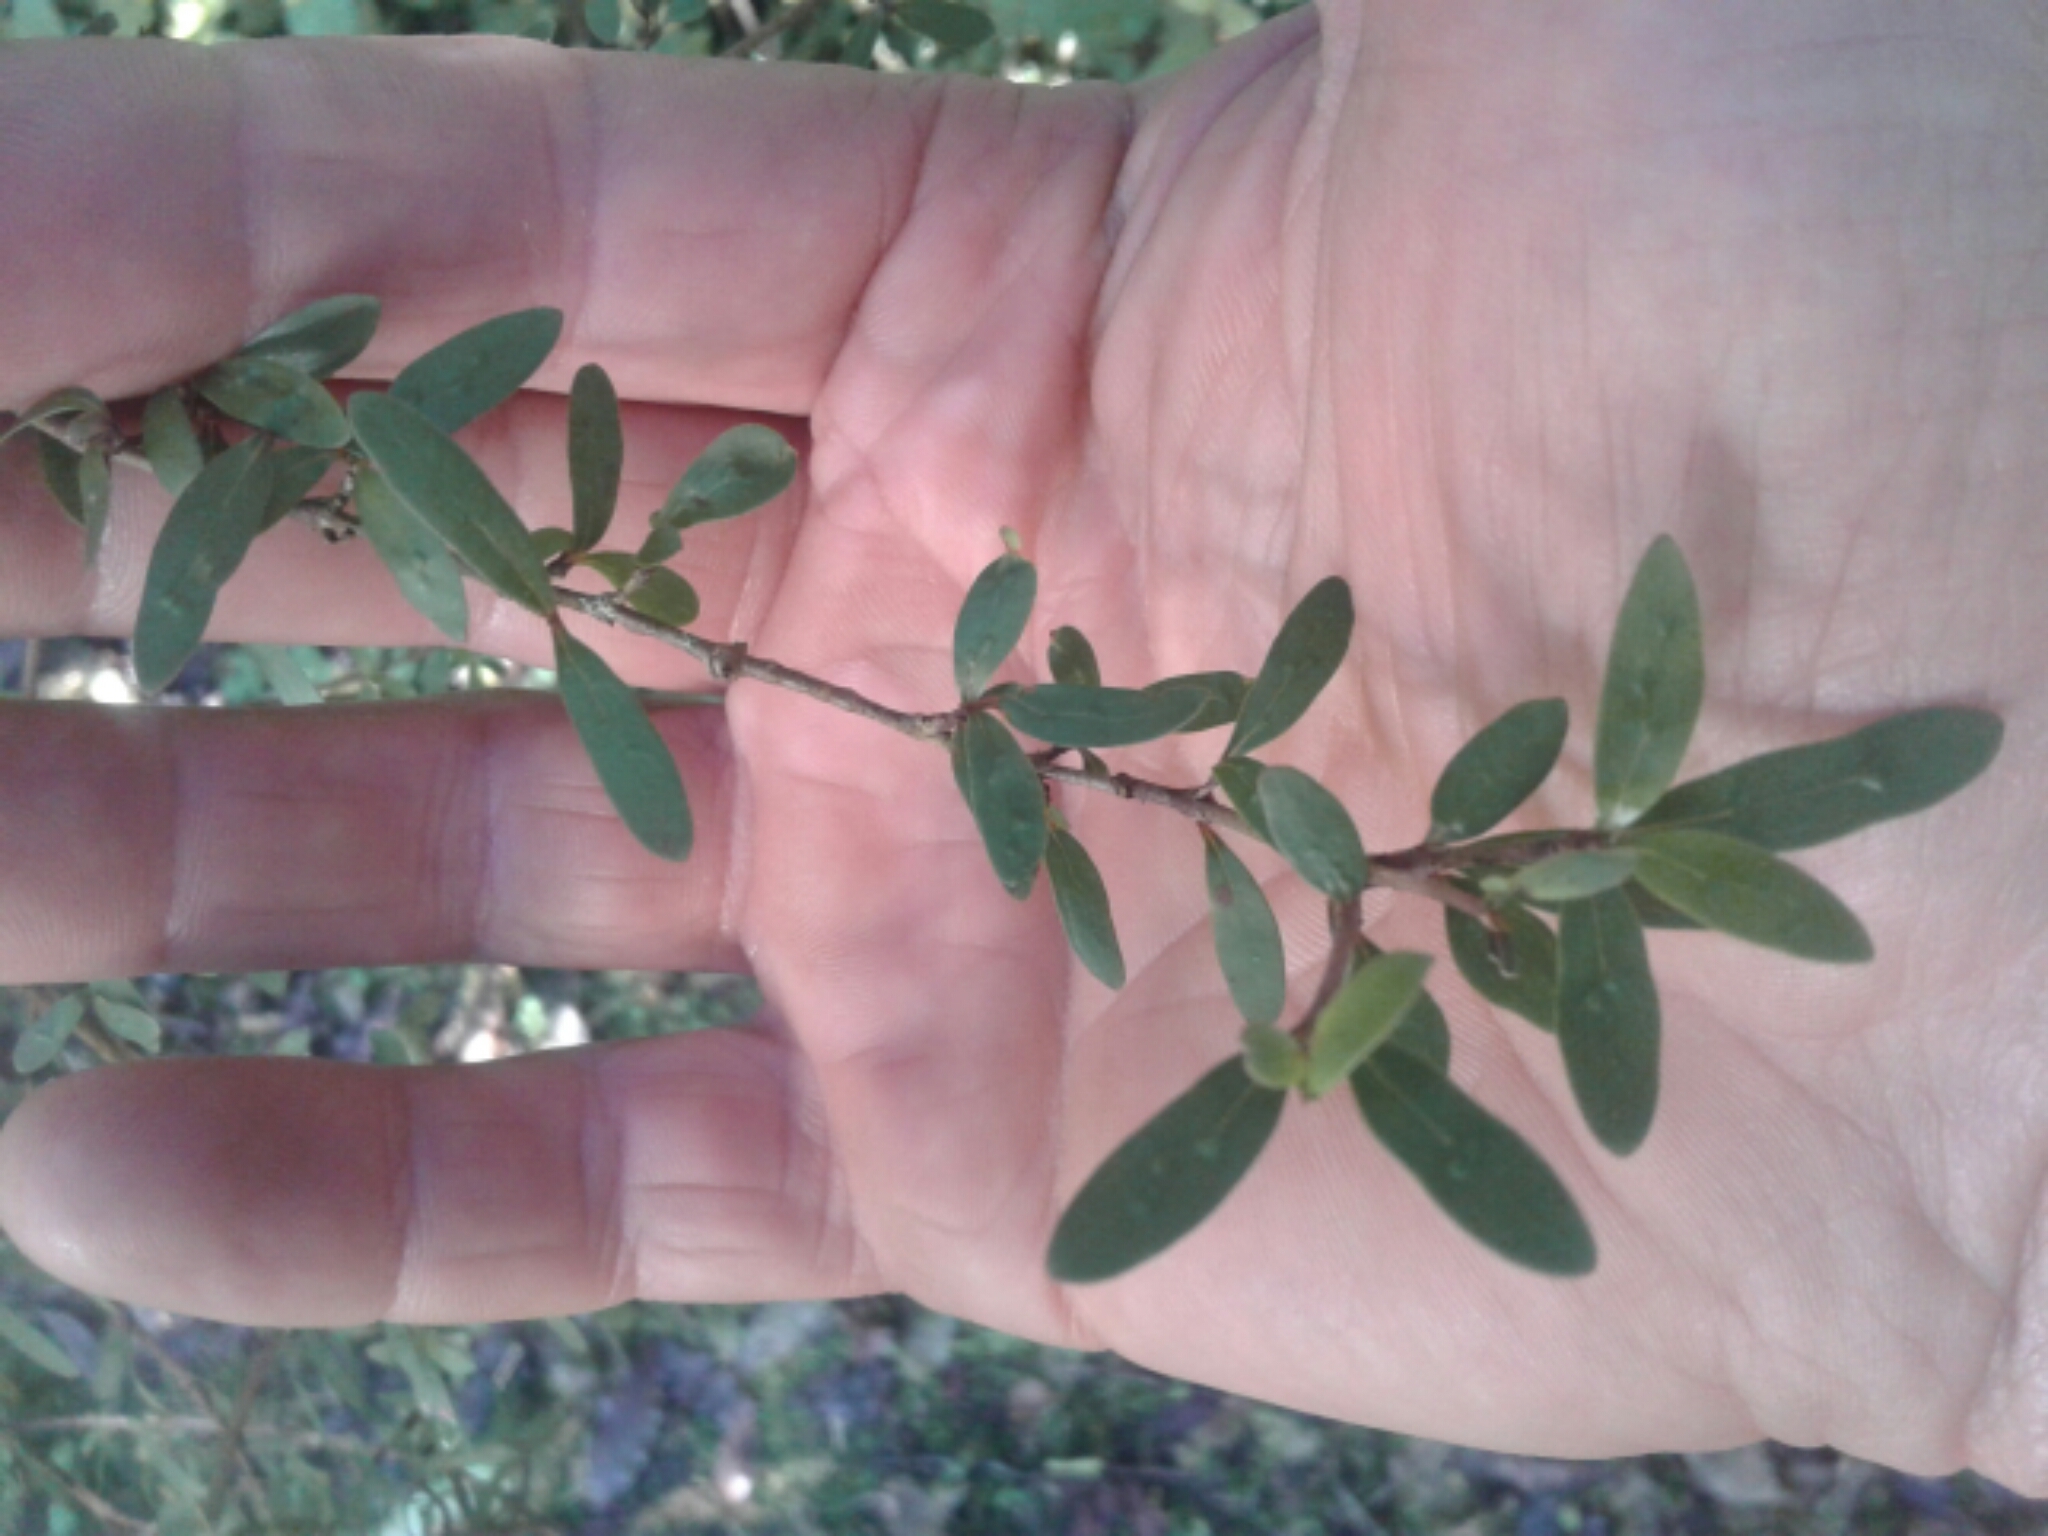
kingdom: Plantae
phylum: Tracheophyta
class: Magnoliopsida
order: Gentianales
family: Rubiaceae
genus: Coprosma
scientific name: Coprosma cunninghamii
